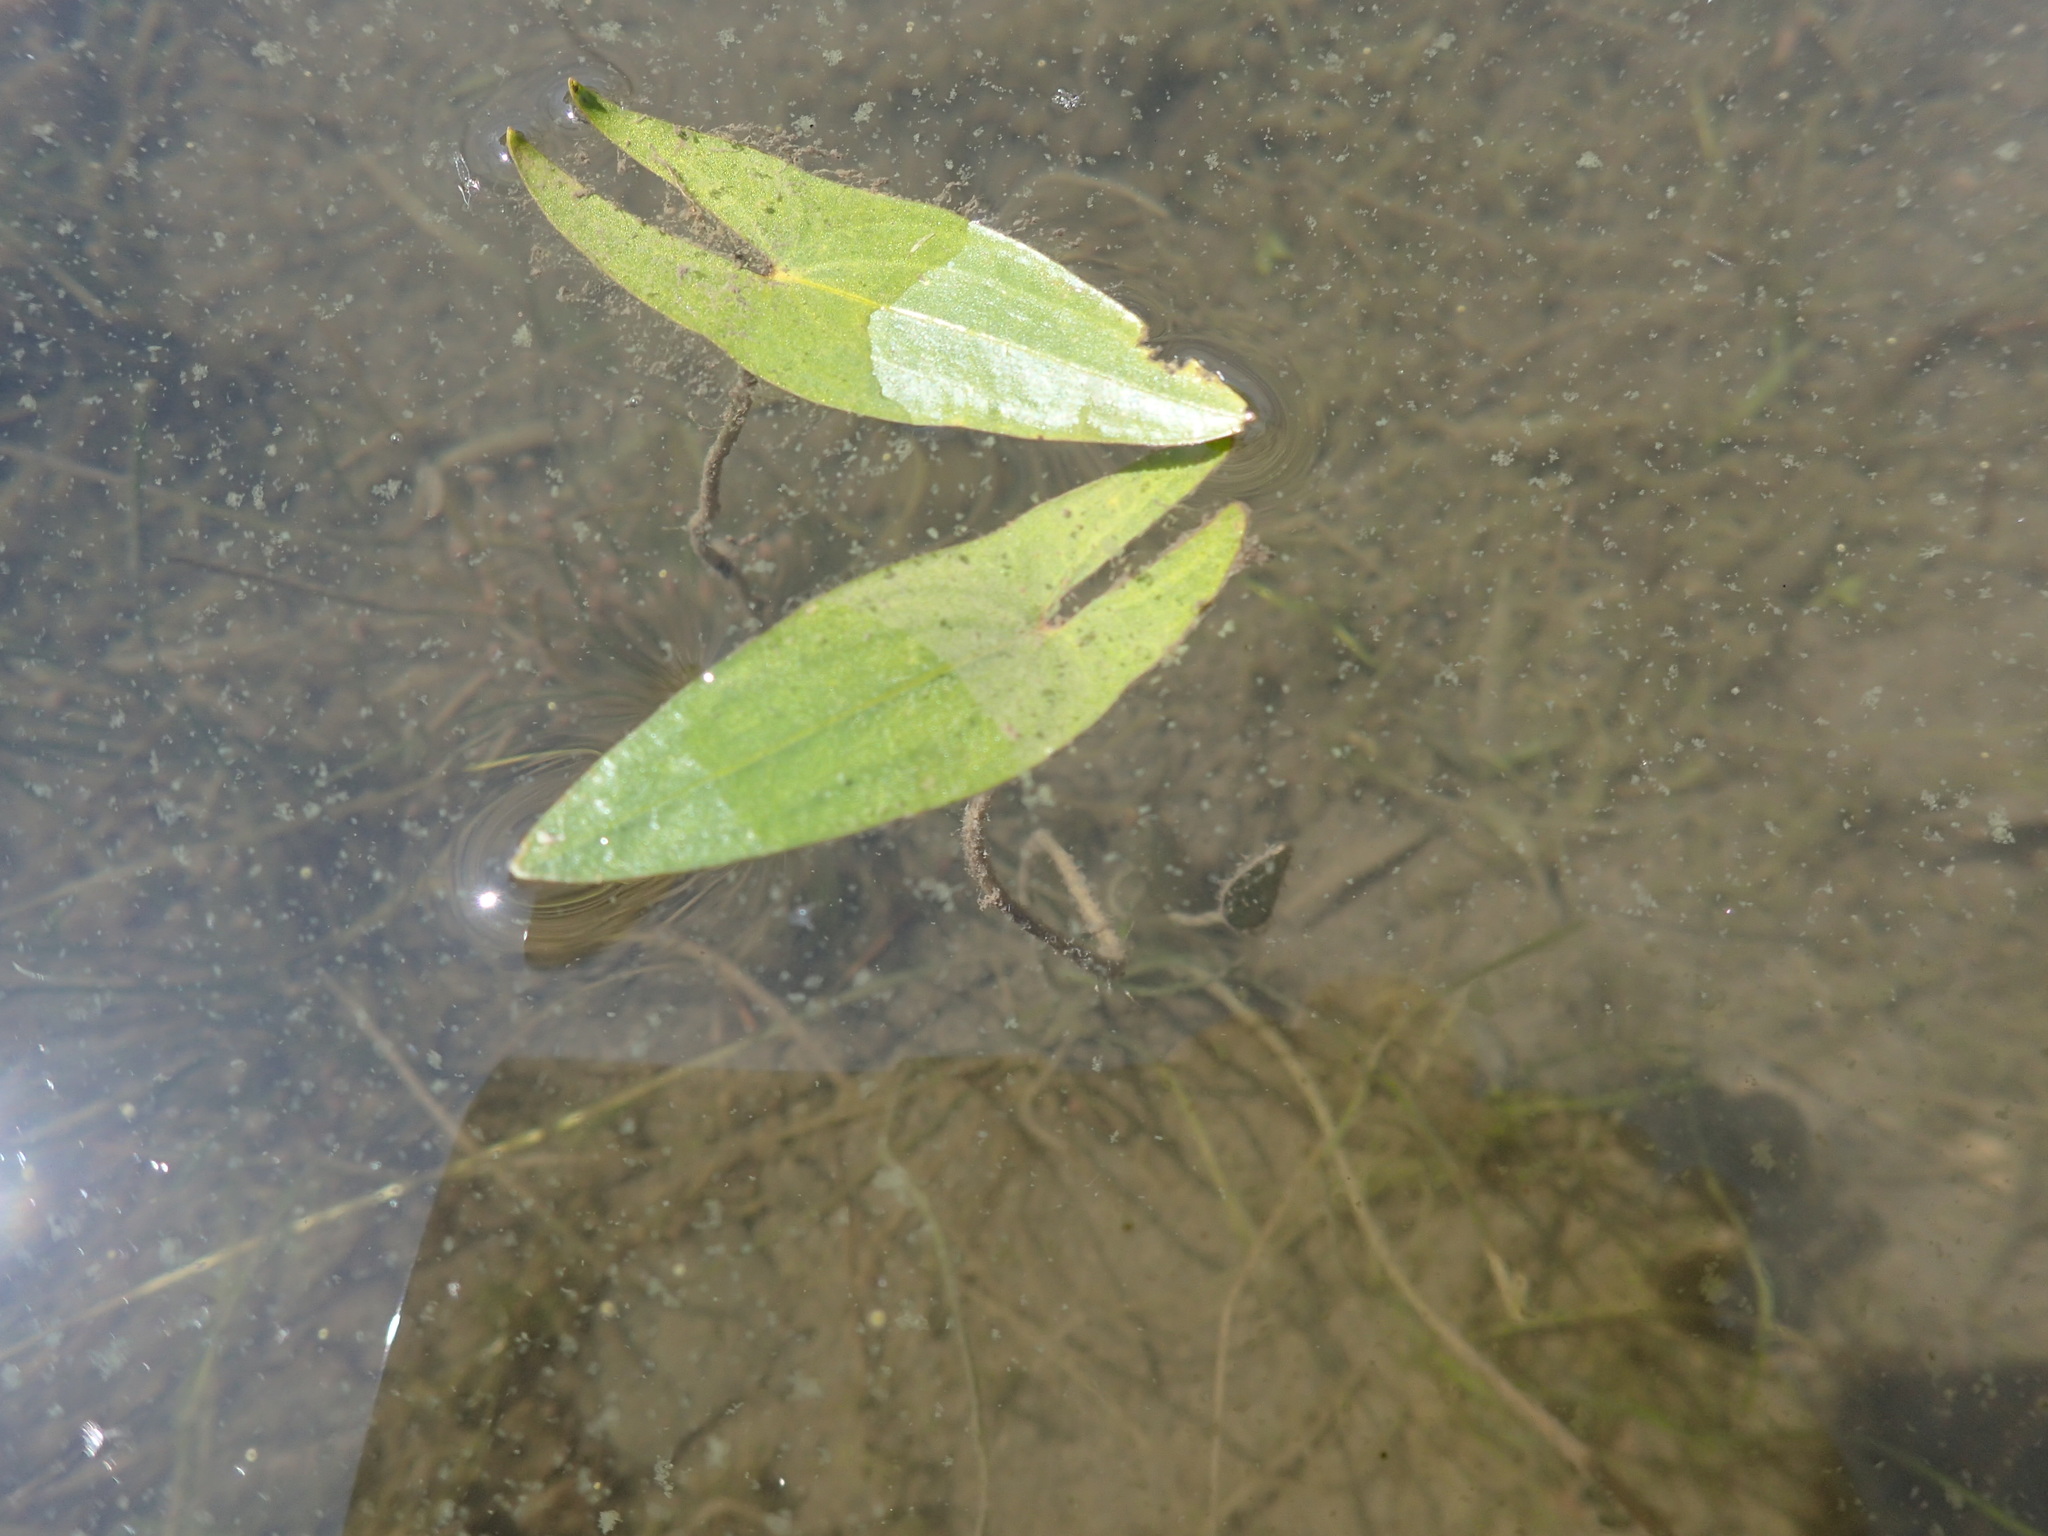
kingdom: Plantae
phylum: Tracheophyta
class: Liliopsida
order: Alismatales
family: Alismataceae
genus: Sagittaria
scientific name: Sagittaria cuneata
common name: Northern arrowhead
